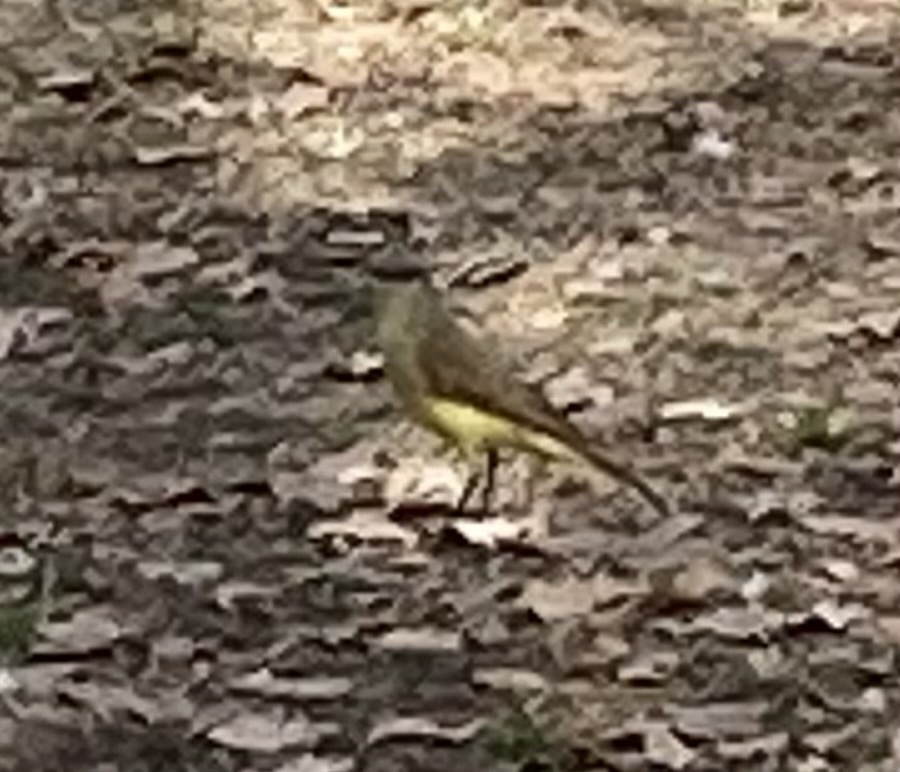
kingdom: Animalia
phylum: Chordata
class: Aves
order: Passeriformes
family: Tyrannidae
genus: Machetornis
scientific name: Machetornis rixosa
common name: Cattle tyrant
